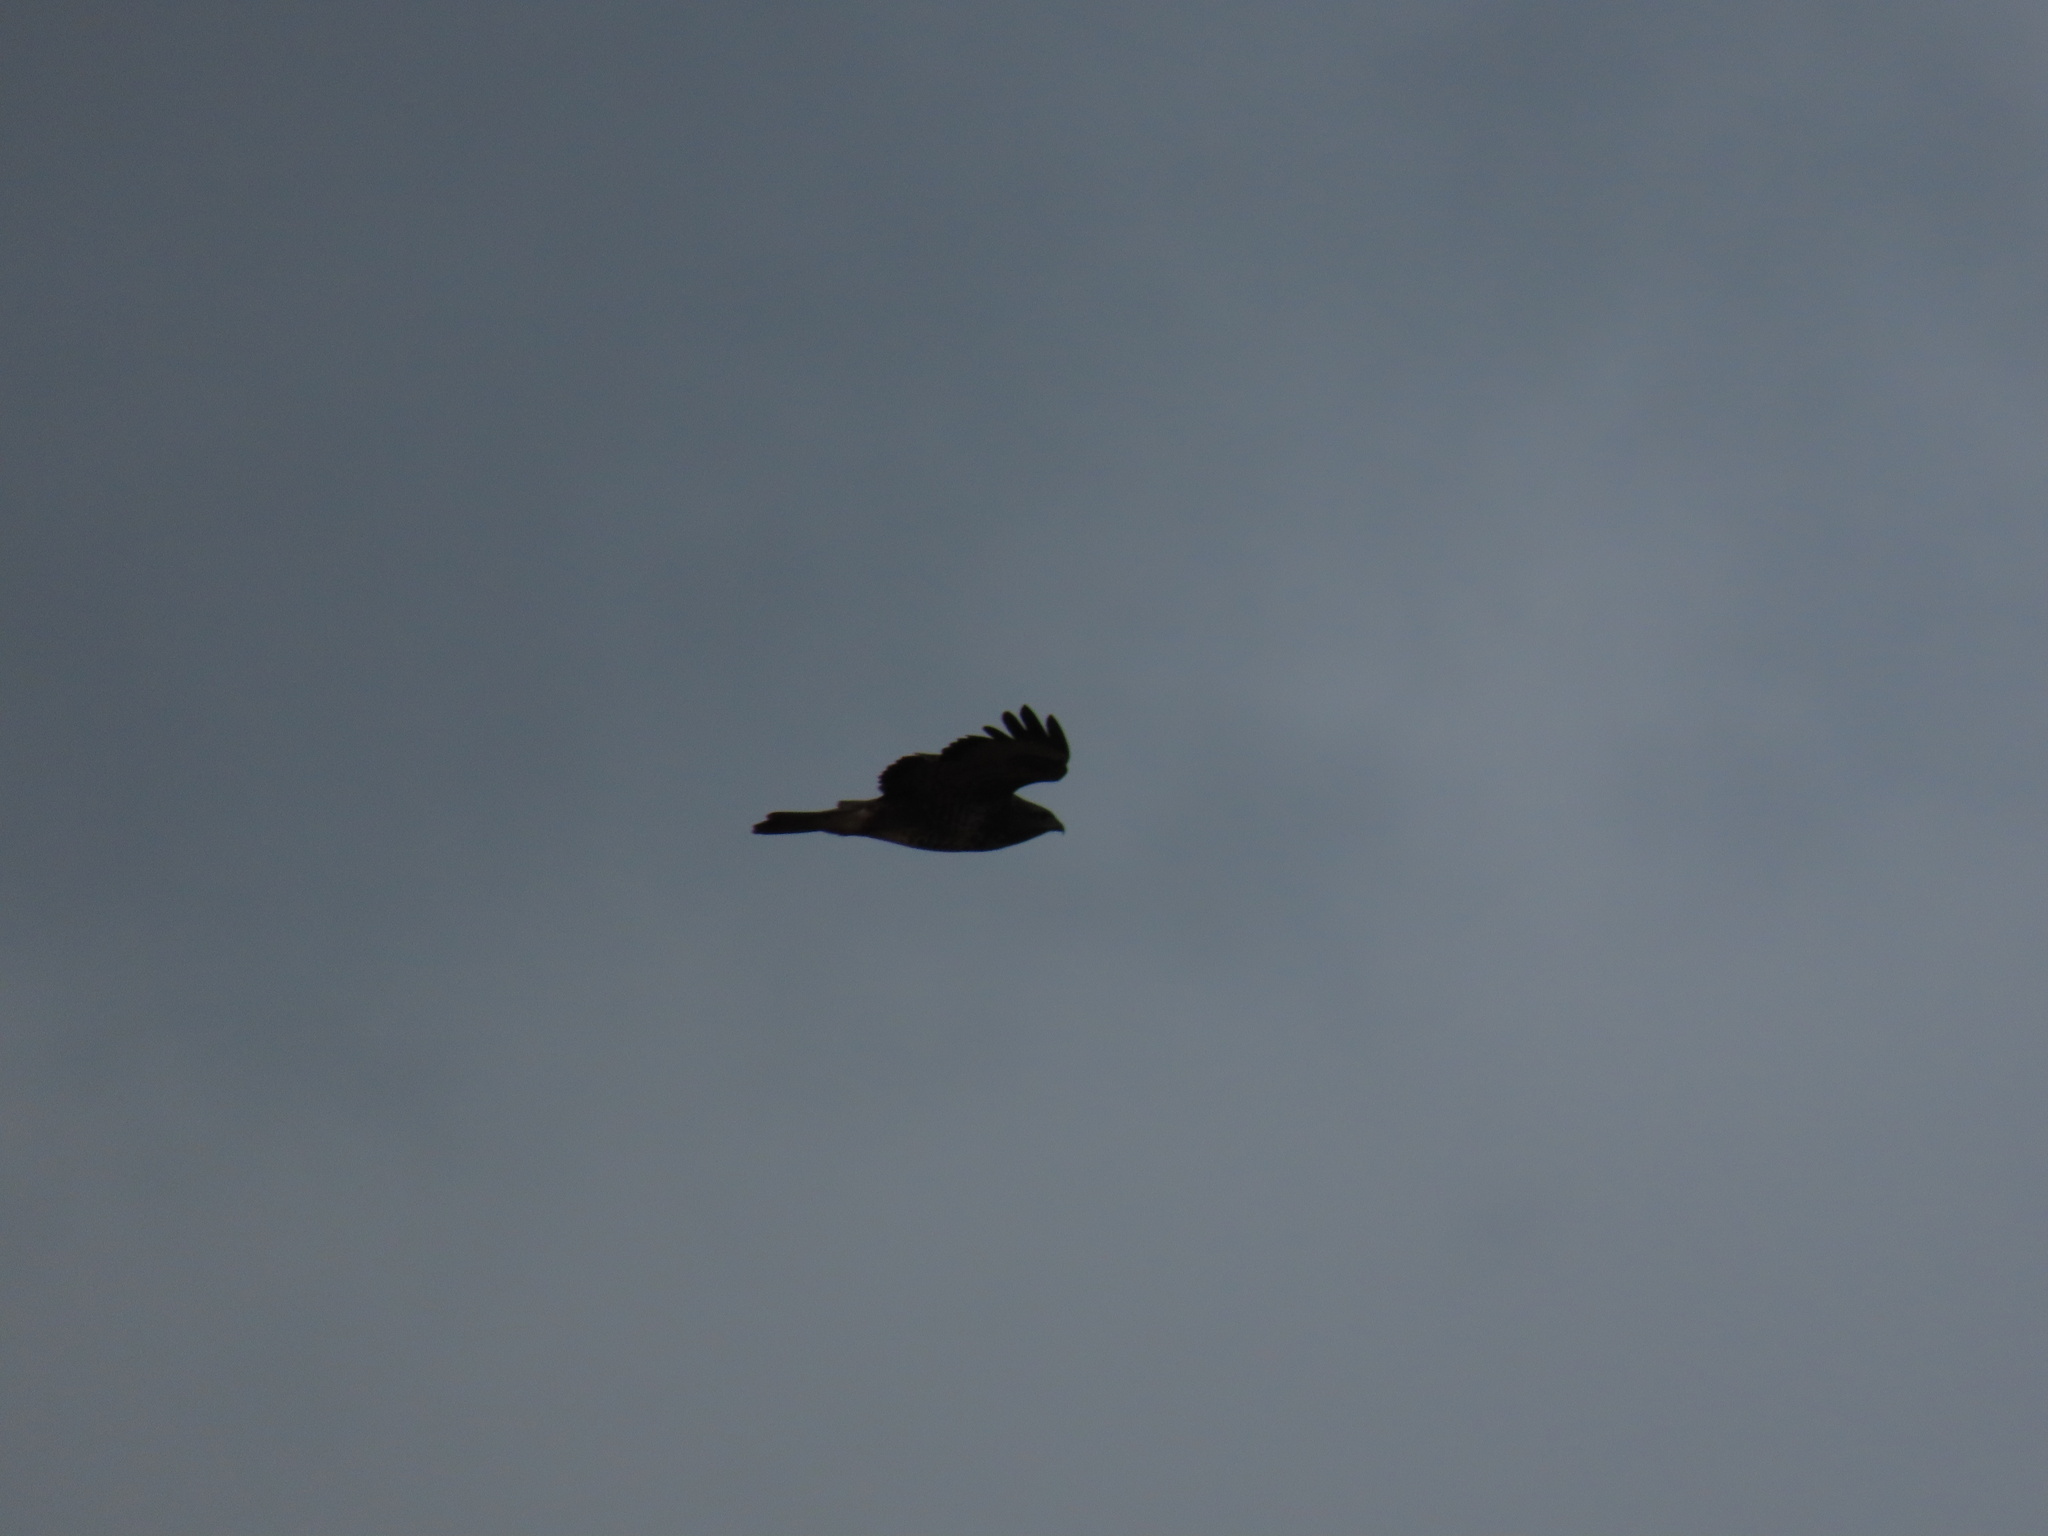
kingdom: Animalia
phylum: Chordata
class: Aves
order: Accipitriformes
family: Accipitridae
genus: Buteo
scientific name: Buteo buteo
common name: Common buzzard
